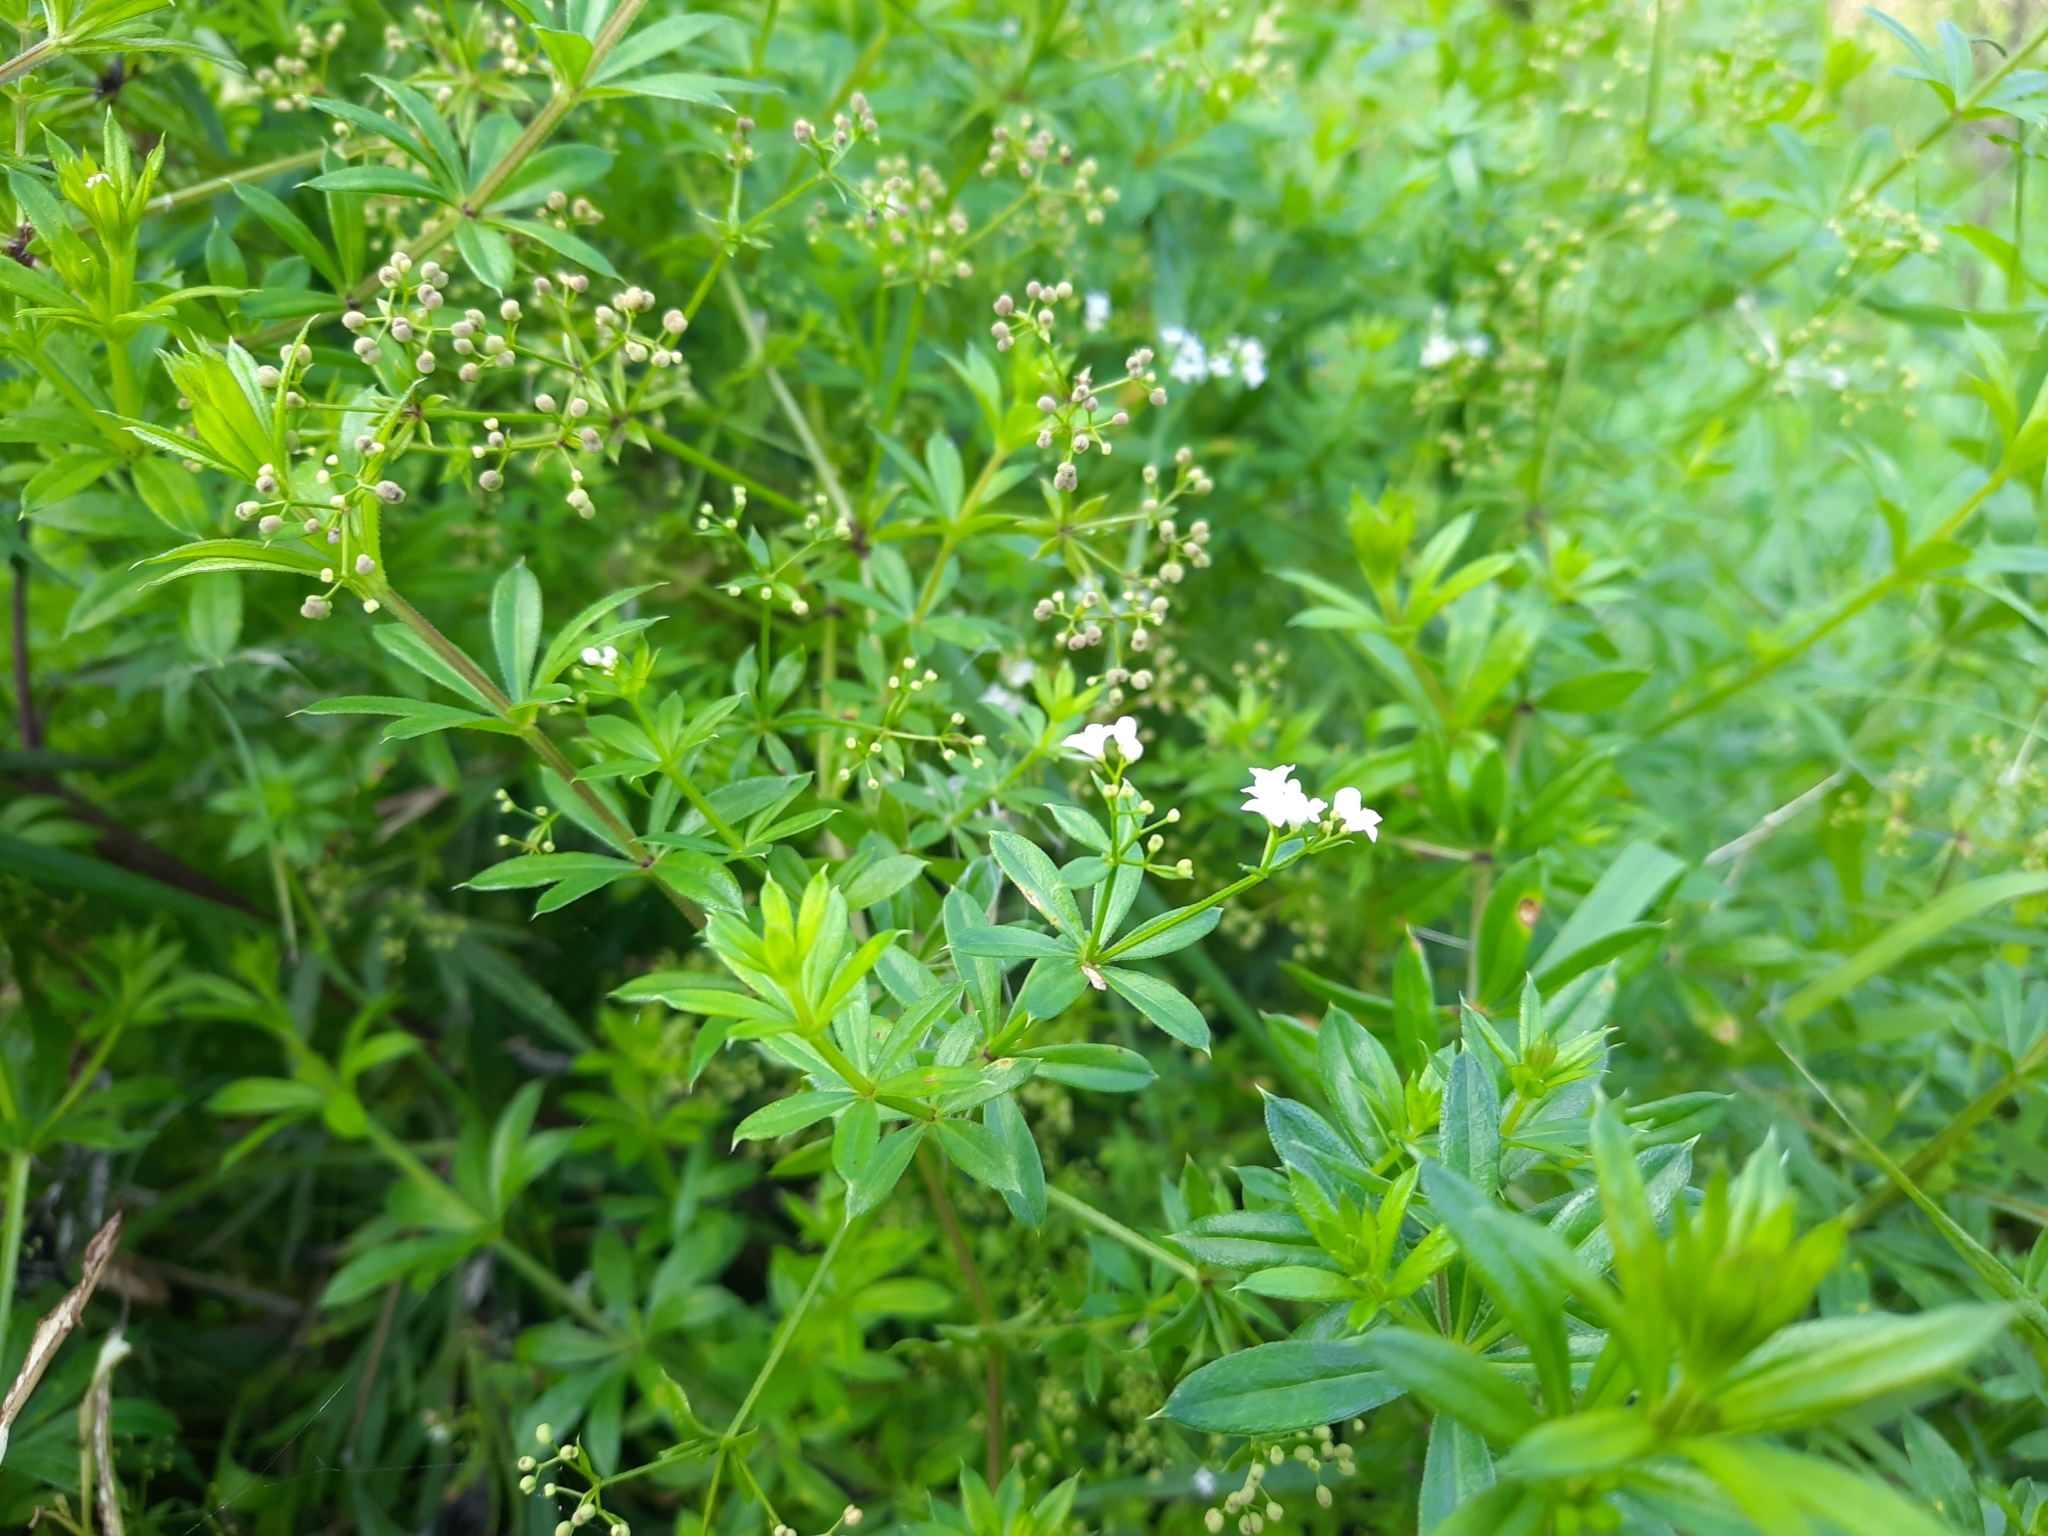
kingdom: Plantae
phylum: Tracheophyta
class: Magnoliopsida
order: Gentianales
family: Rubiaceae
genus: Galium
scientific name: Galium rivale
